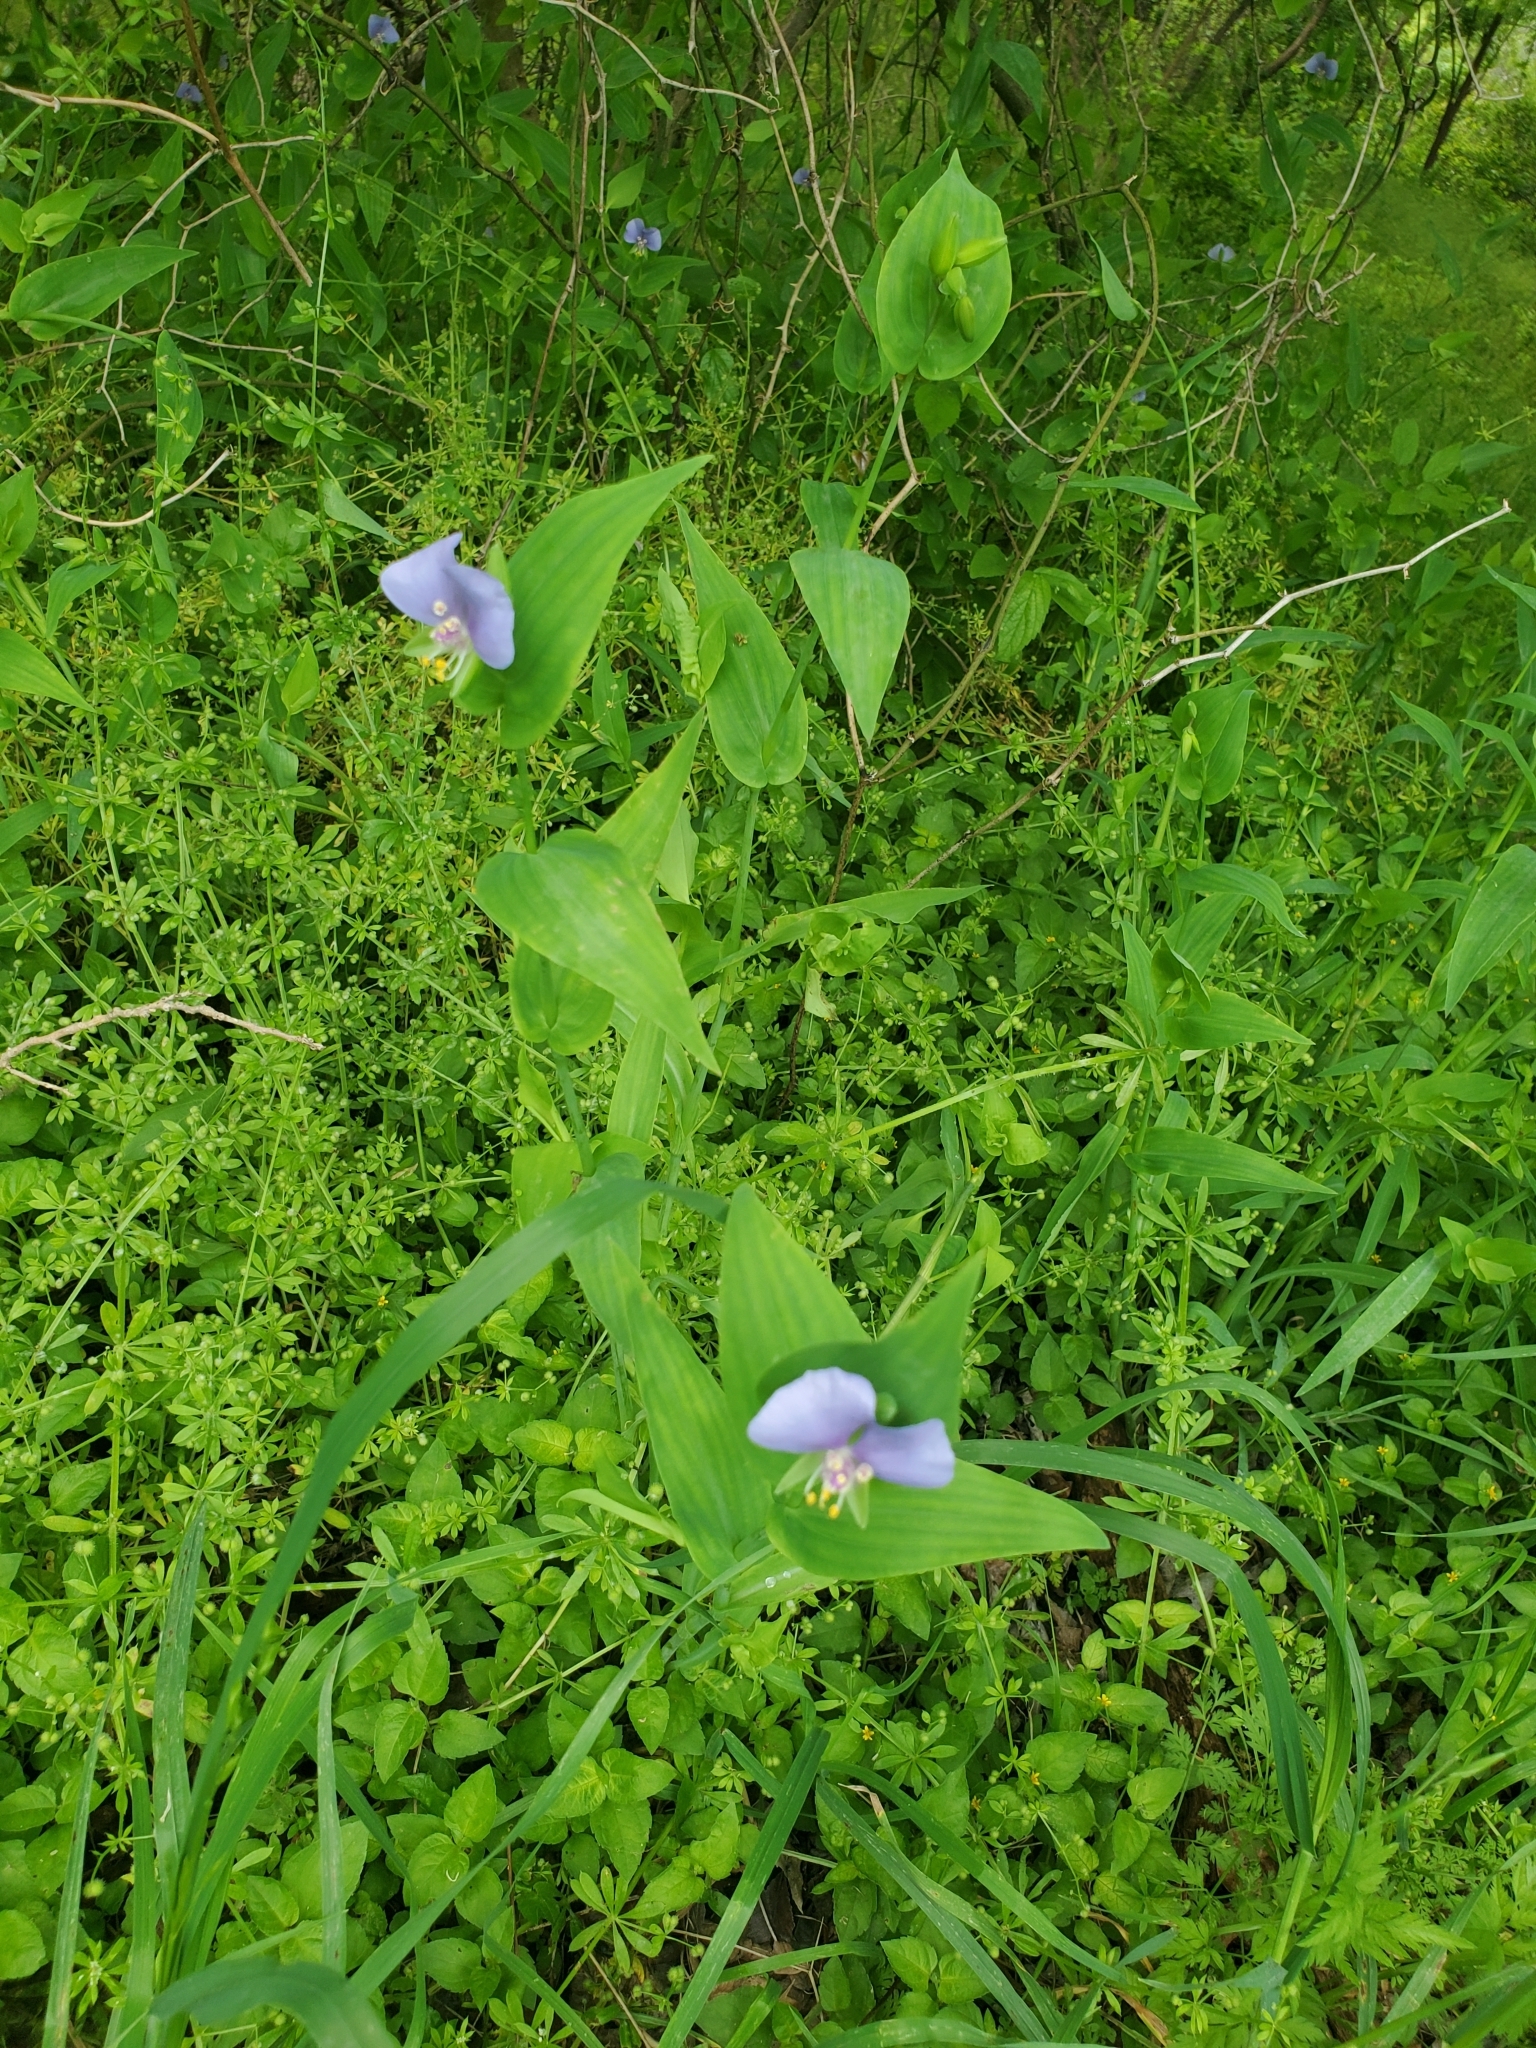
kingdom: Plantae
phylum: Tracheophyta
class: Liliopsida
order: Commelinales
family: Commelinaceae
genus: Tinantia
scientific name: Tinantia anomala
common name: False dayflower
